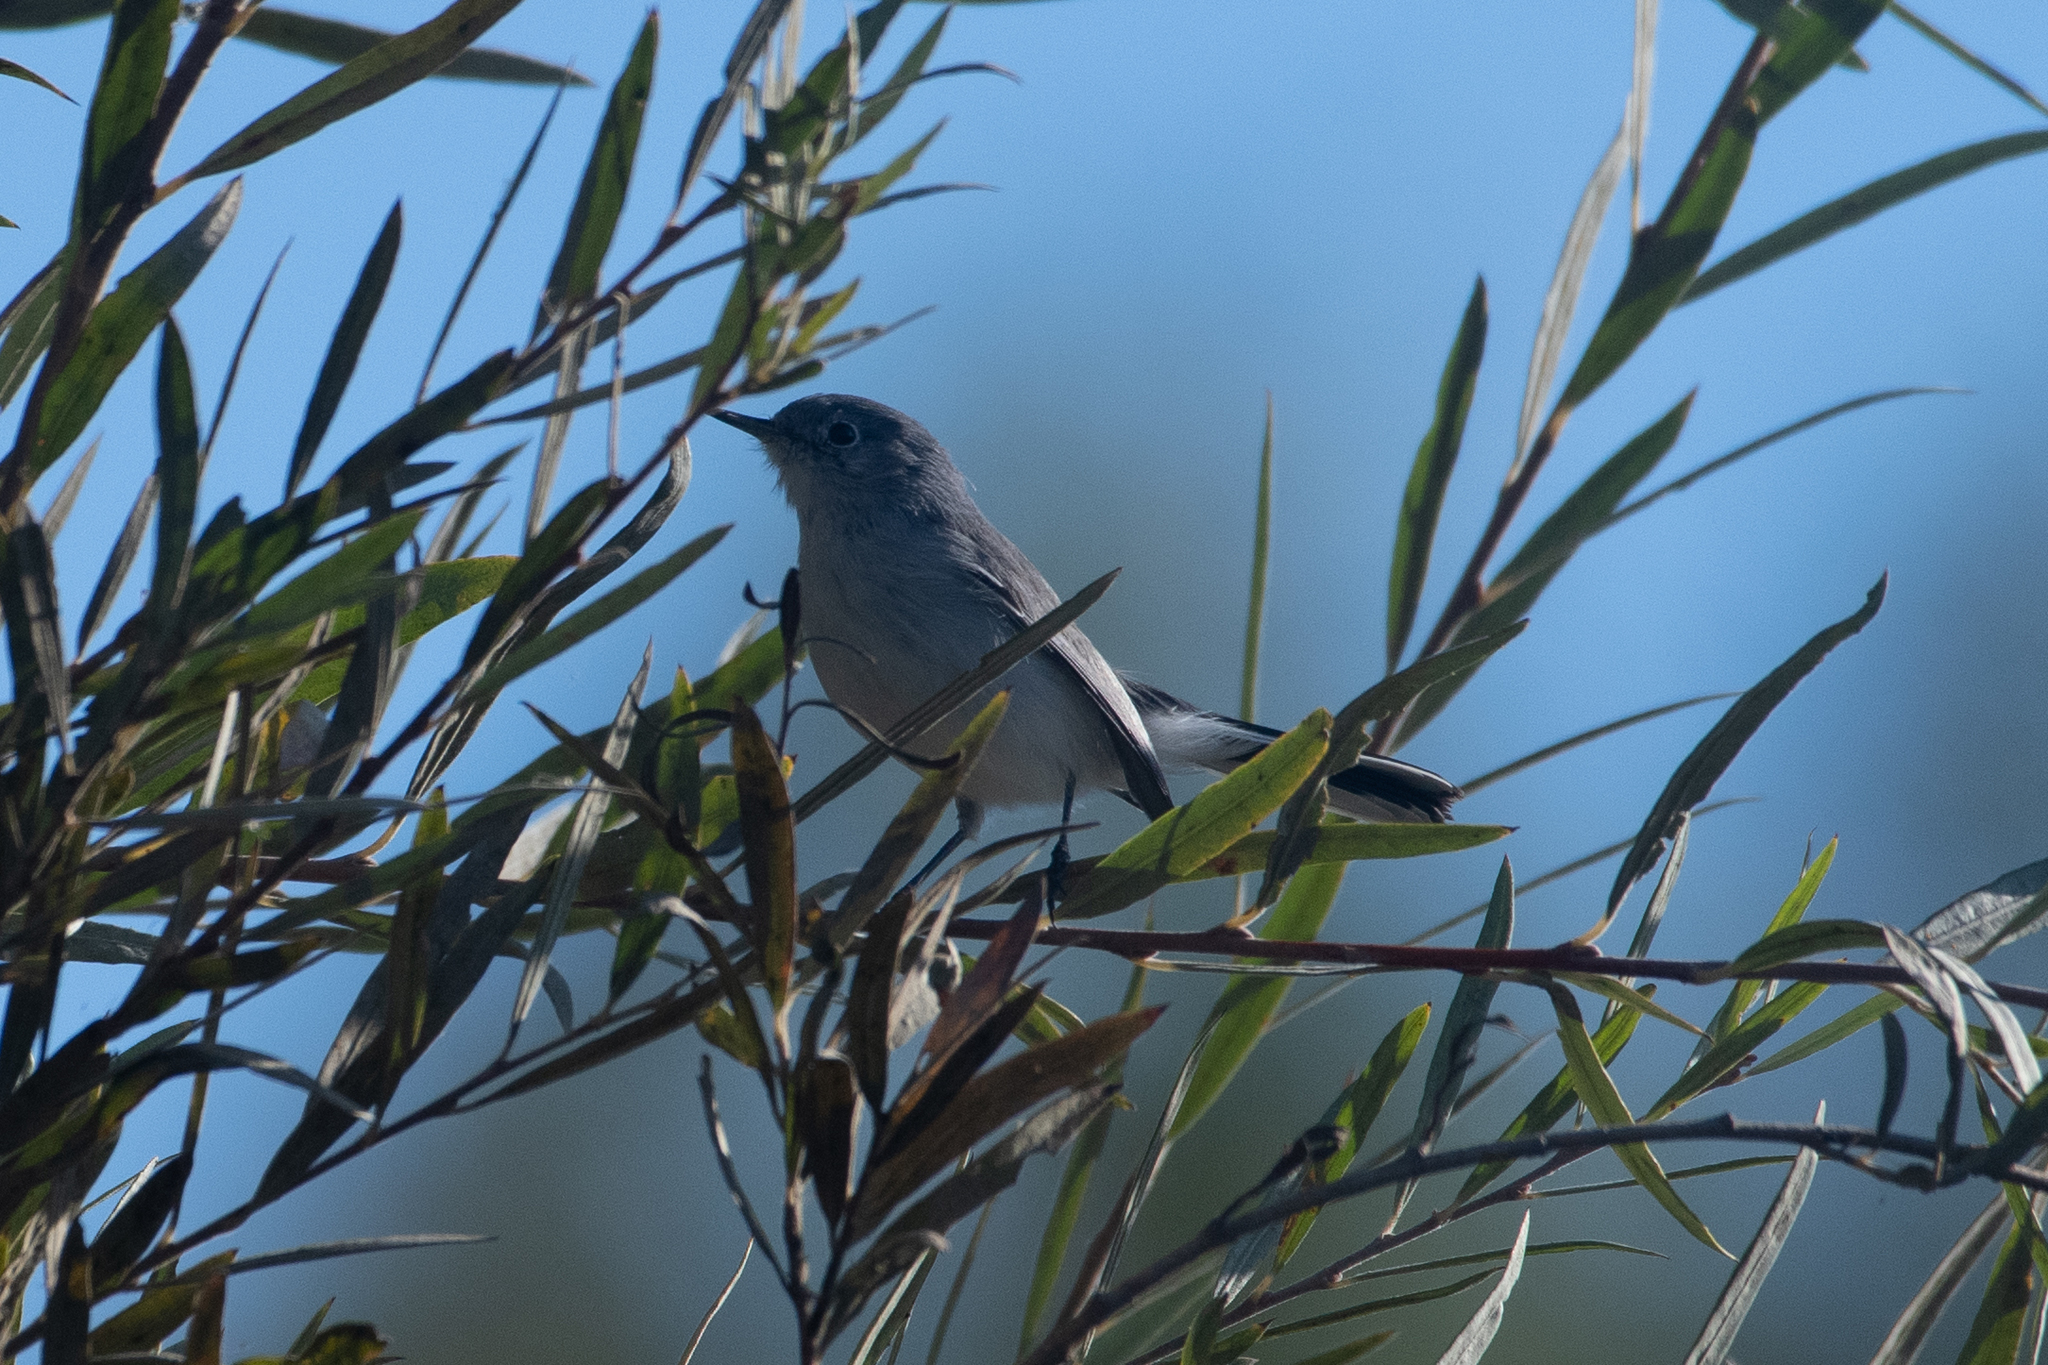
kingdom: Animalia
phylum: Chordata
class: Aves
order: Passeriformes
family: Polioptilidae
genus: Polioptila
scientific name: Polioptila caerulea
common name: Blue-gray gnatcatcher
